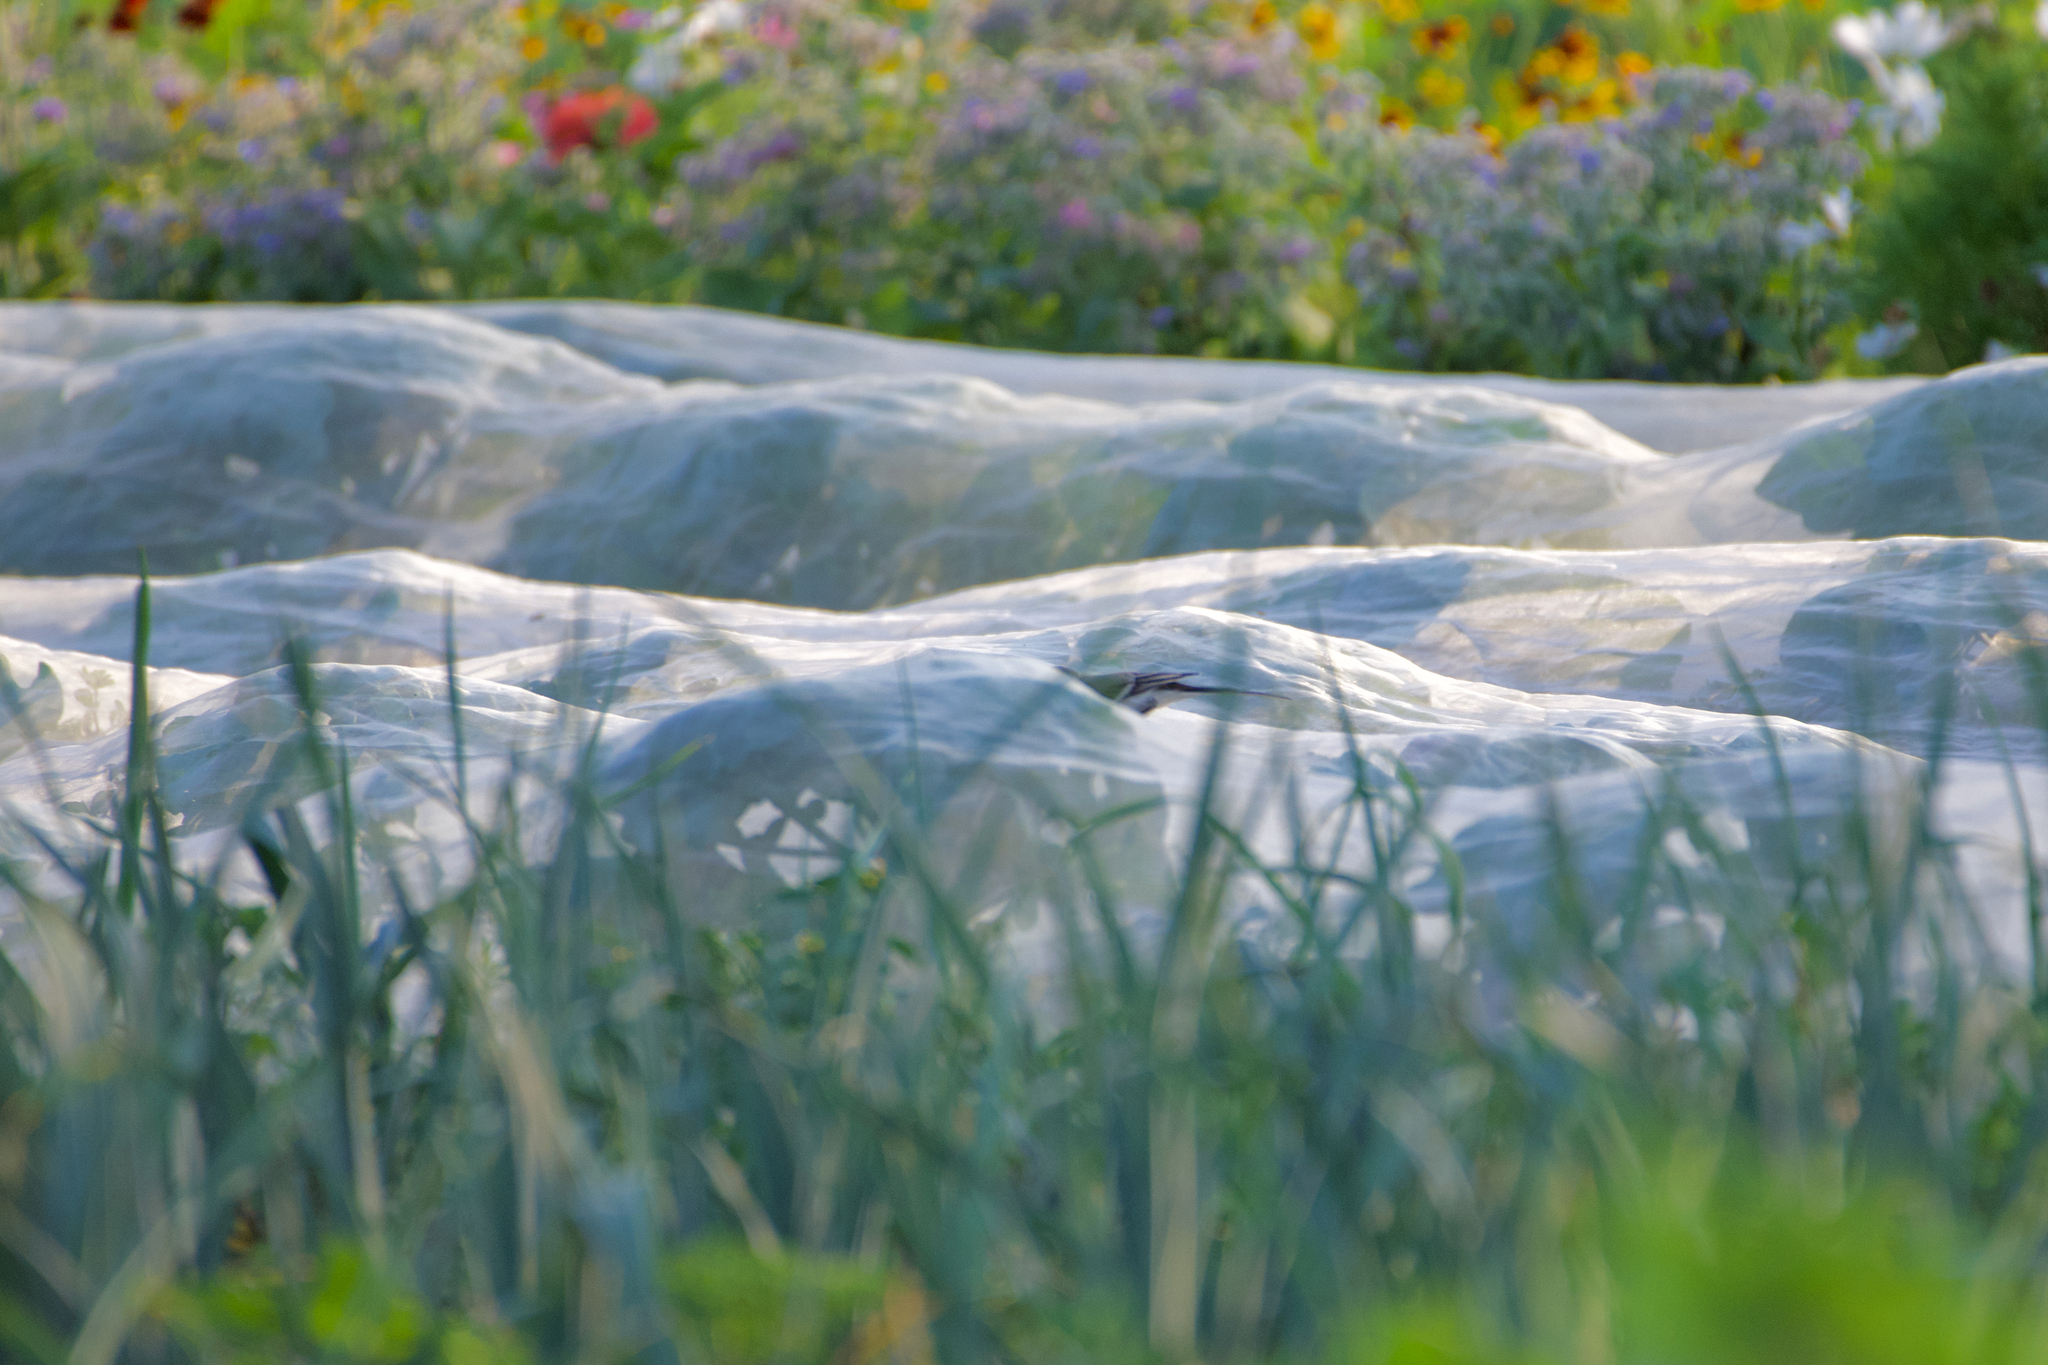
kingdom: Animalia
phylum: Chordata
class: Aves
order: Passeriformes
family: Motacillidae
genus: Motacilla
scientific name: Motacilla alba
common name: White wagtail
